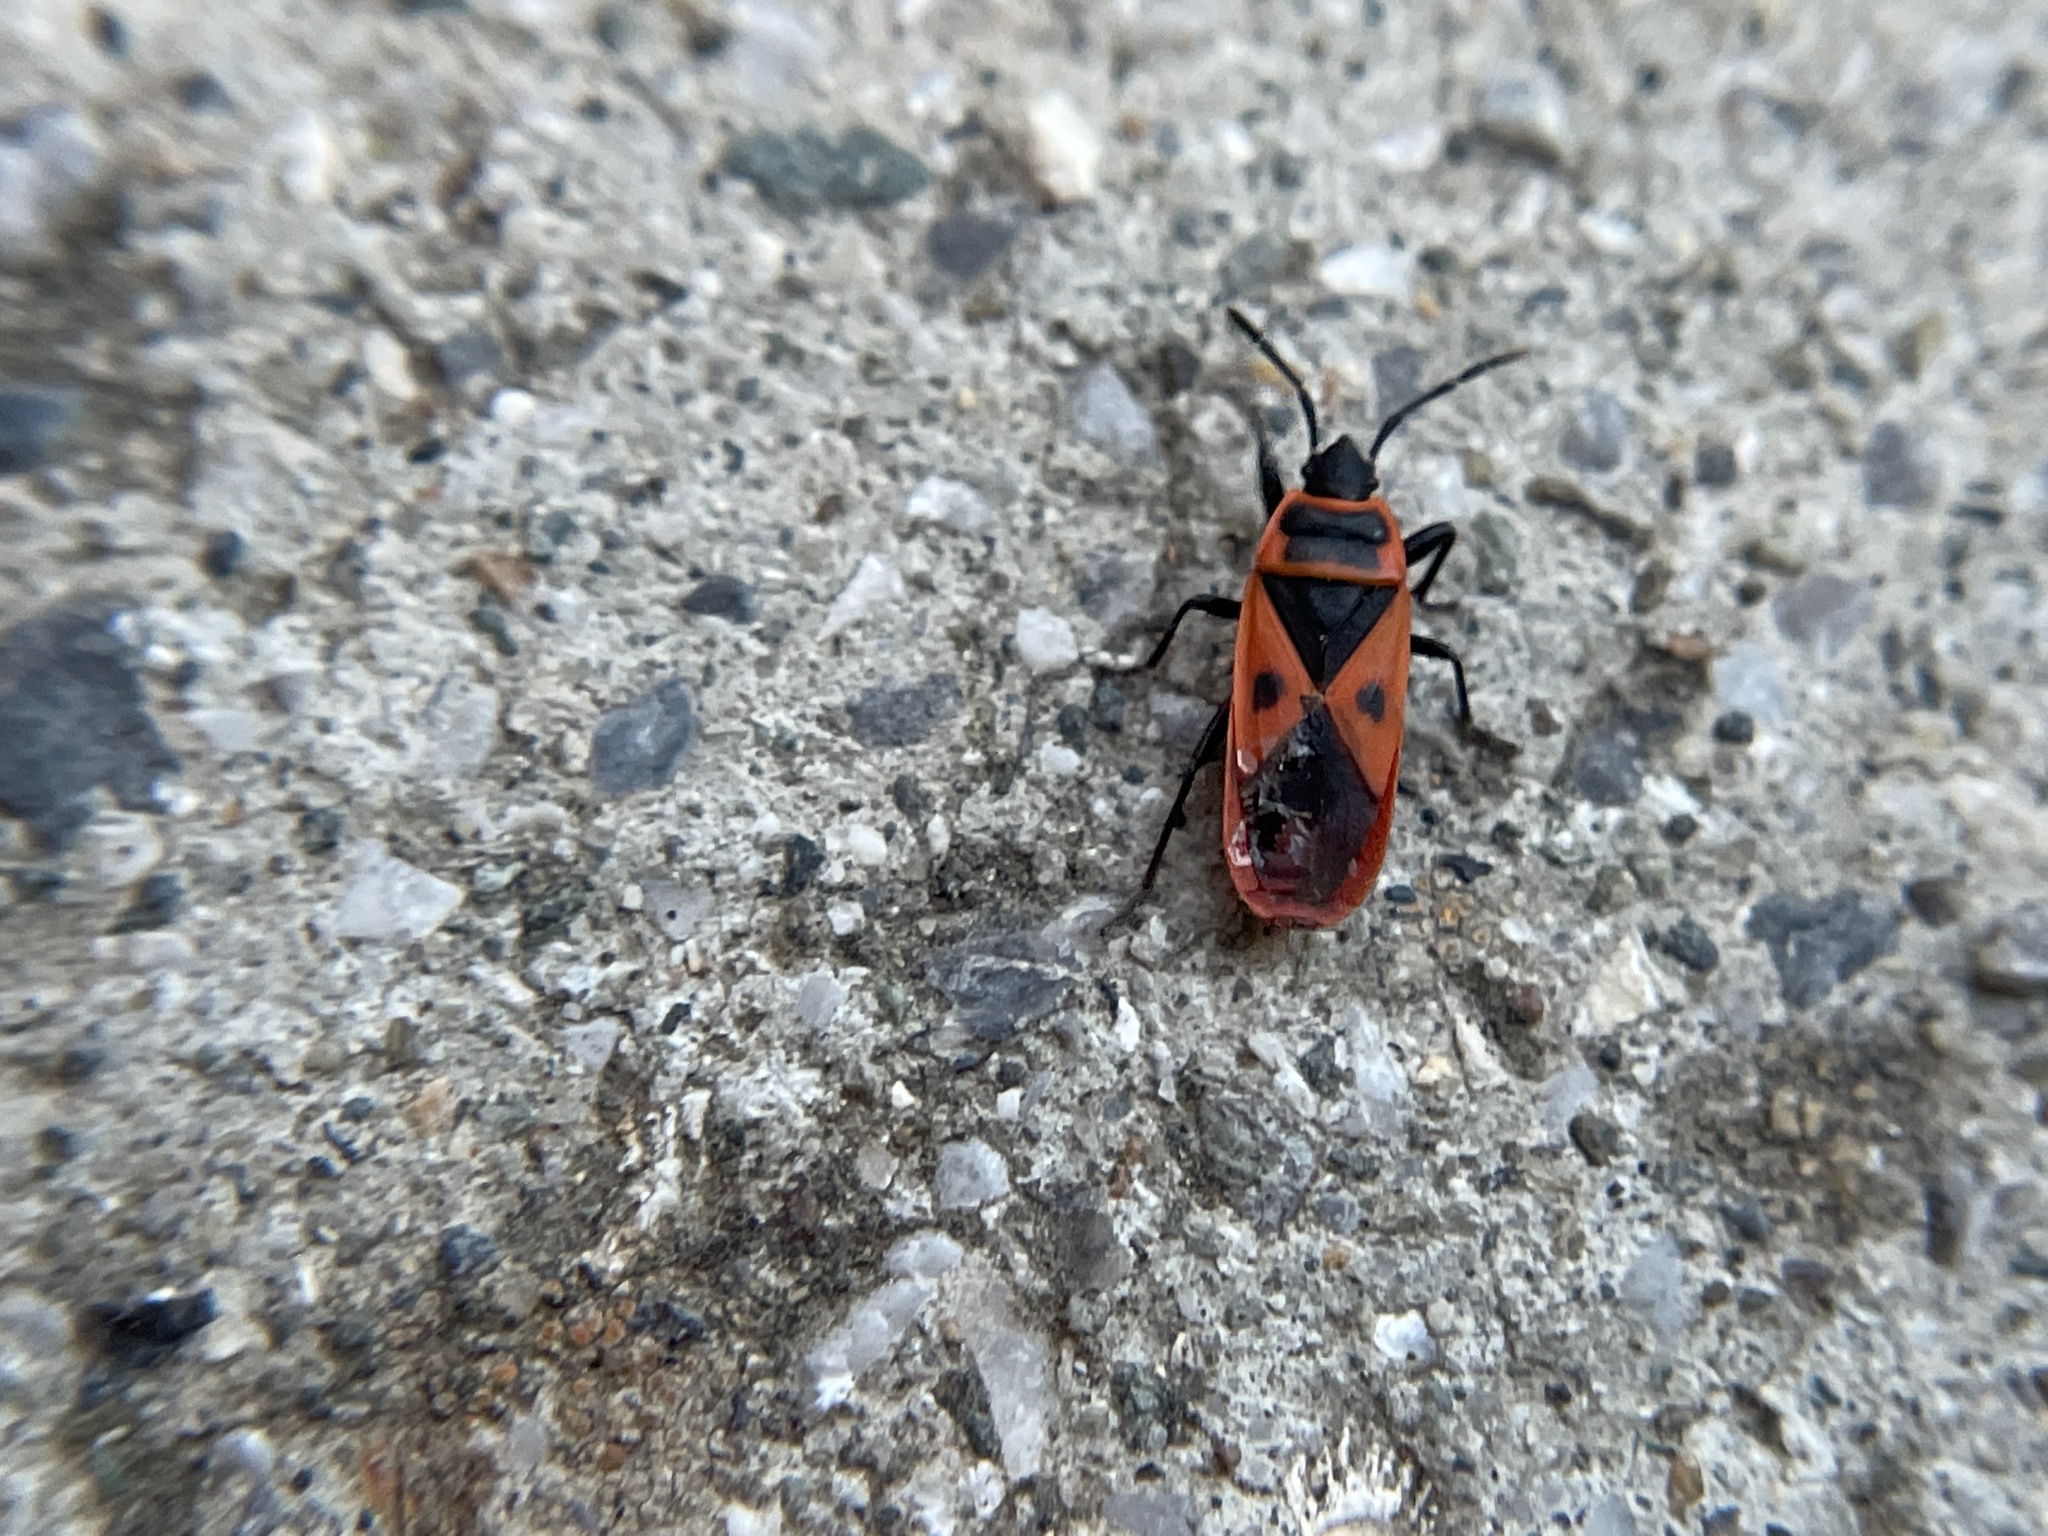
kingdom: Animalia
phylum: Arthropoda
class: Insecta
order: Hemiptera
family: Pyrrhocoridae
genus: Scantius
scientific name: Scantius aegyptius
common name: Red bug
